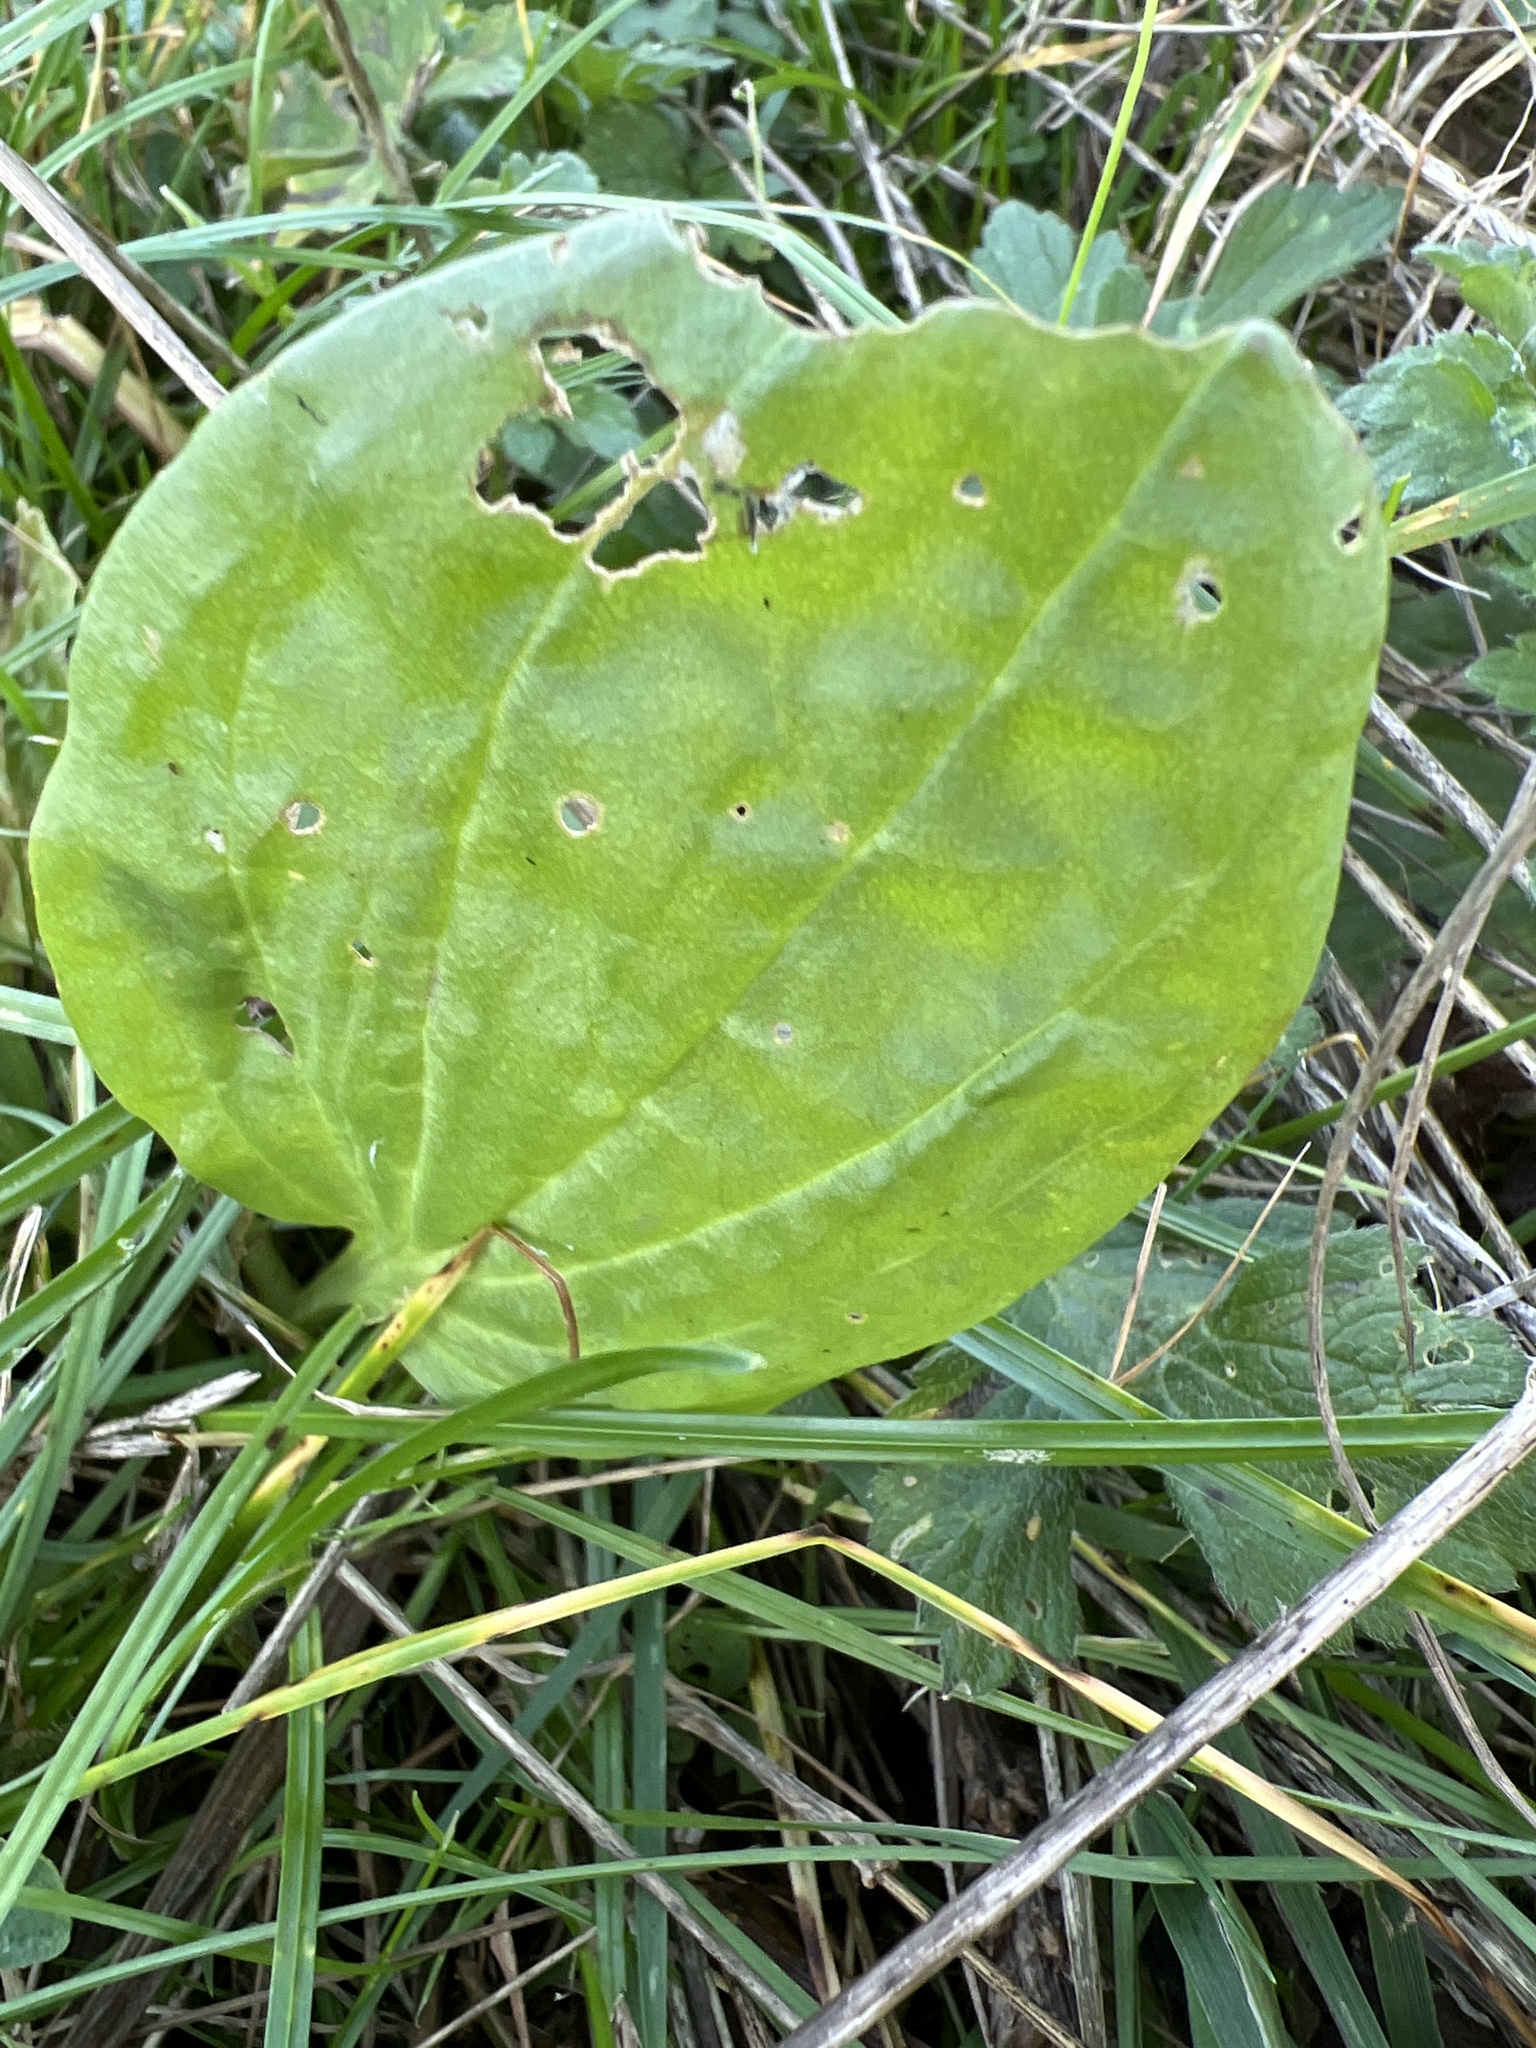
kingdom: Plantae
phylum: Tracheophyta
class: Magnoliopsida
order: Lamiales
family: Plantaginaceae
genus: Plantago
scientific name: Plantago major
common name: Common plantain
